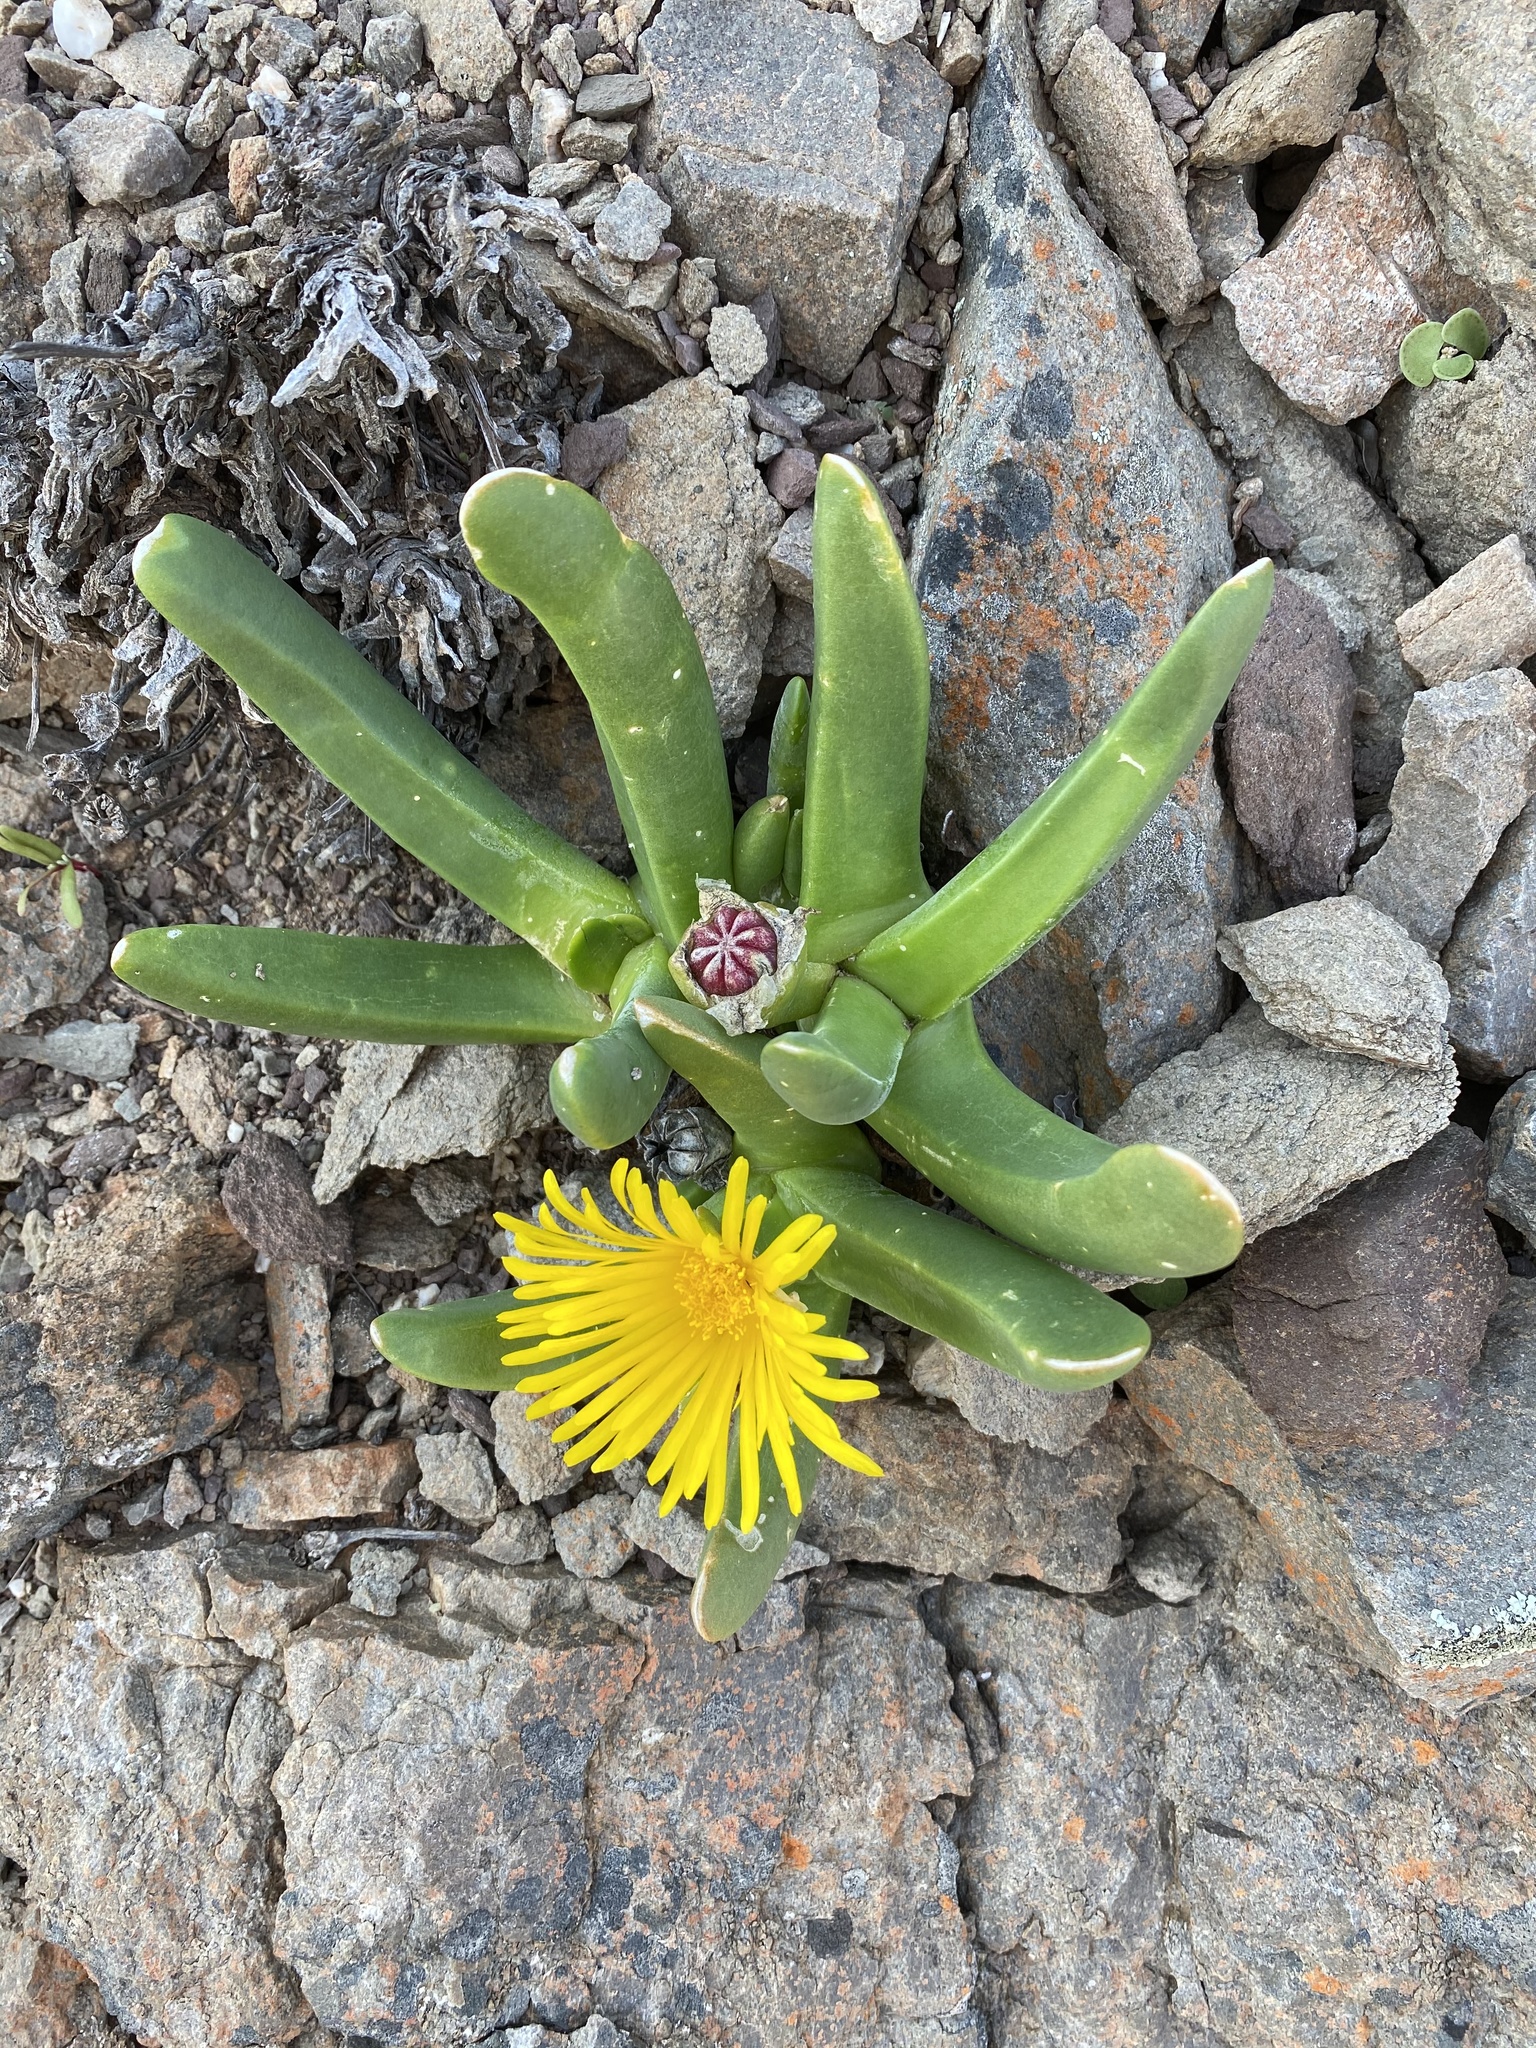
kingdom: Plantae
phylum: Tracheophyta
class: Magnoliopsida
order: Caryophyllales
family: Aizoaceae
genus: Glottiphyllum
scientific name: Glottiphyllum regium
